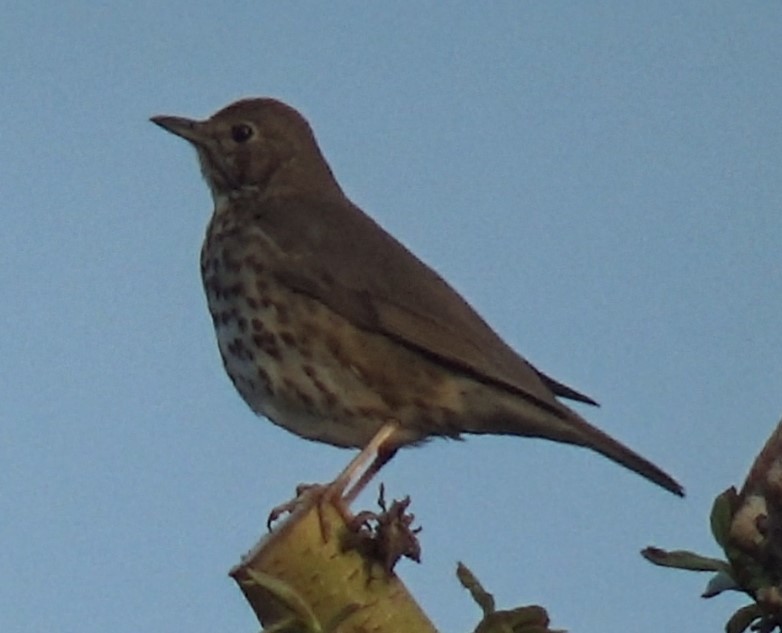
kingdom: Animalia
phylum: Chordata
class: Aves
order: Passeriformes
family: Turdidae
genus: Turdus
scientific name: Turdus philomelos
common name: Song thrush
